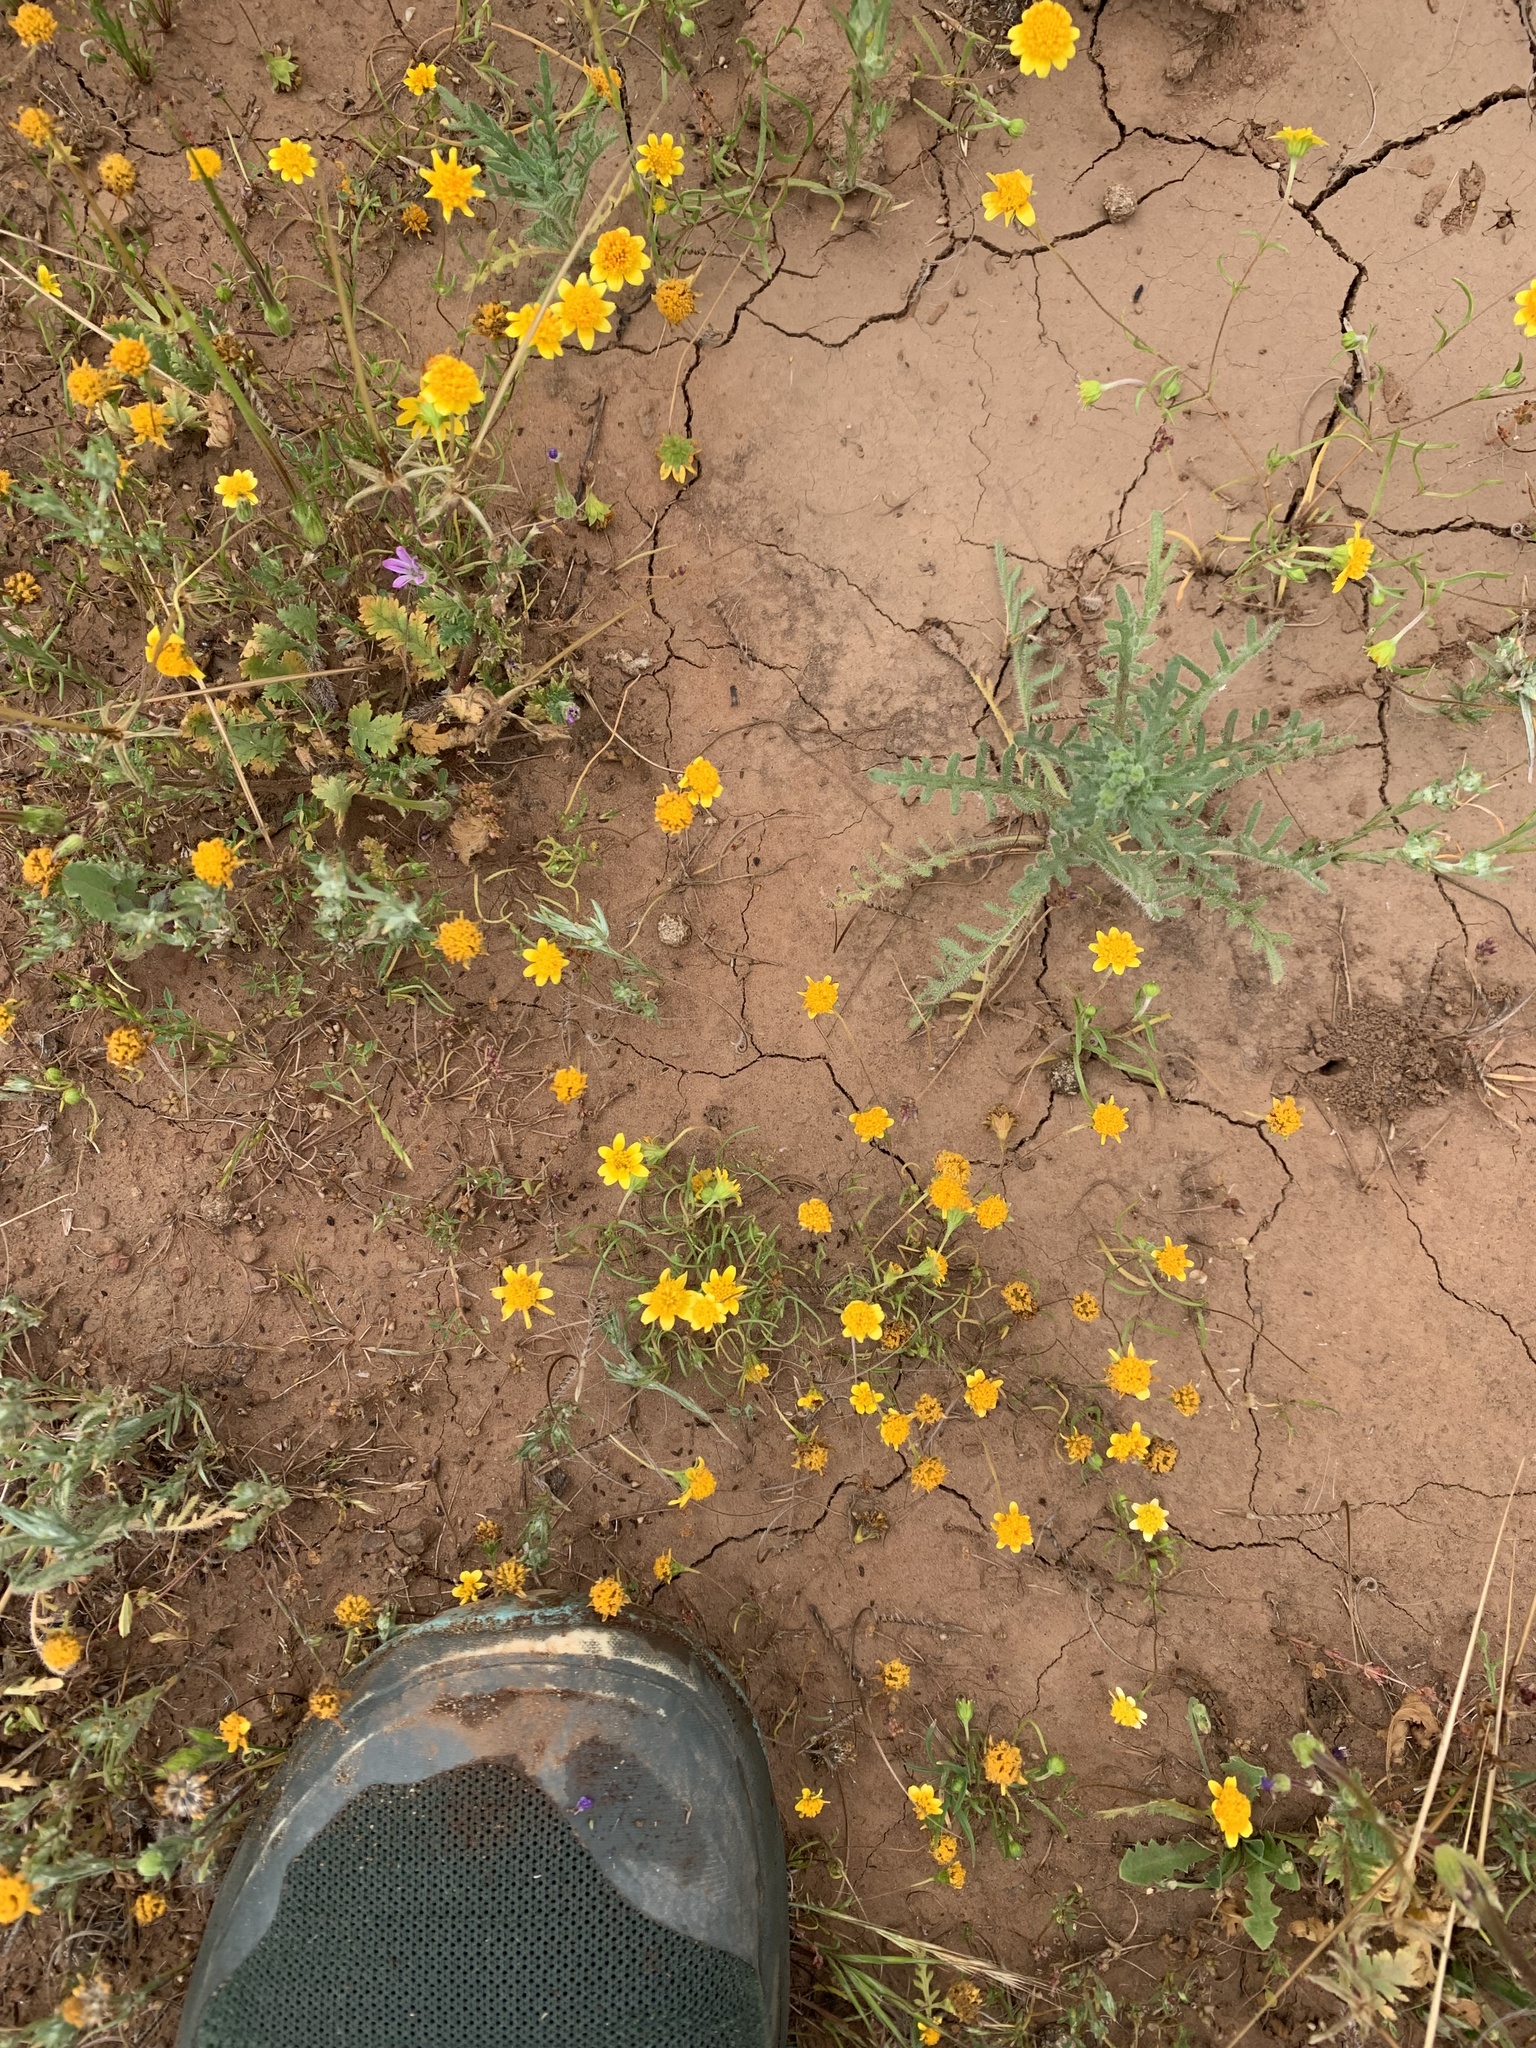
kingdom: Plantae
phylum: Tracheophyta
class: Magnoliopsida
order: Asterales
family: Asteraceae
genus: Lasthenia
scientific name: Lasthenia gracilis
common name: Common goldfields
